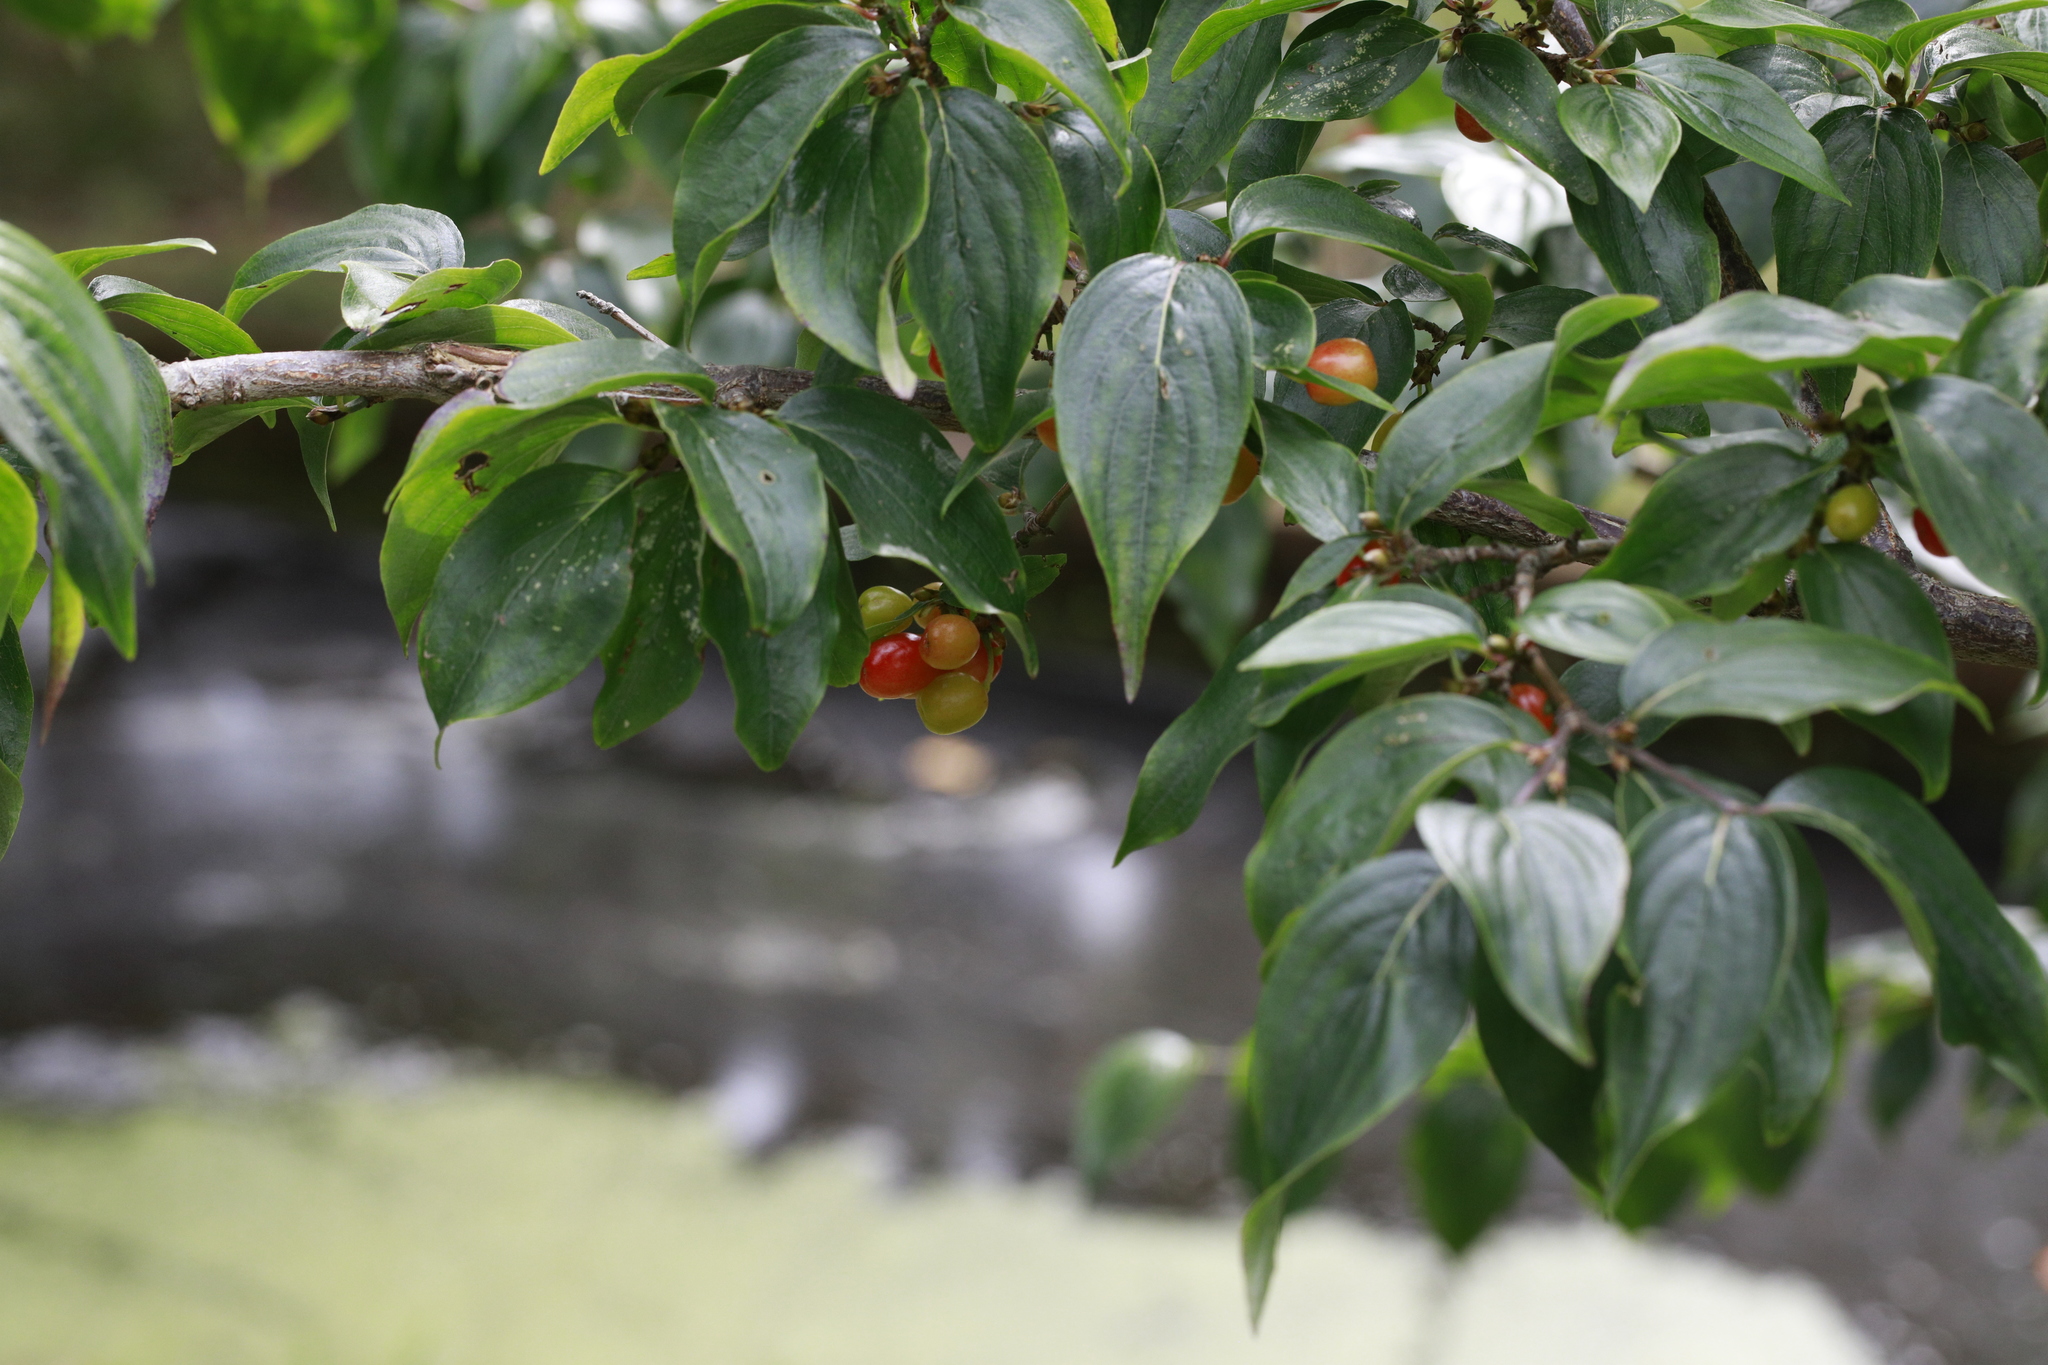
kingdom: Plantae
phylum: Tracheophyta
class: Magnoliopsida
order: Cornales
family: Cornaceae
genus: Cornus
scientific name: Cornus mas
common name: Cornelian-cherry
